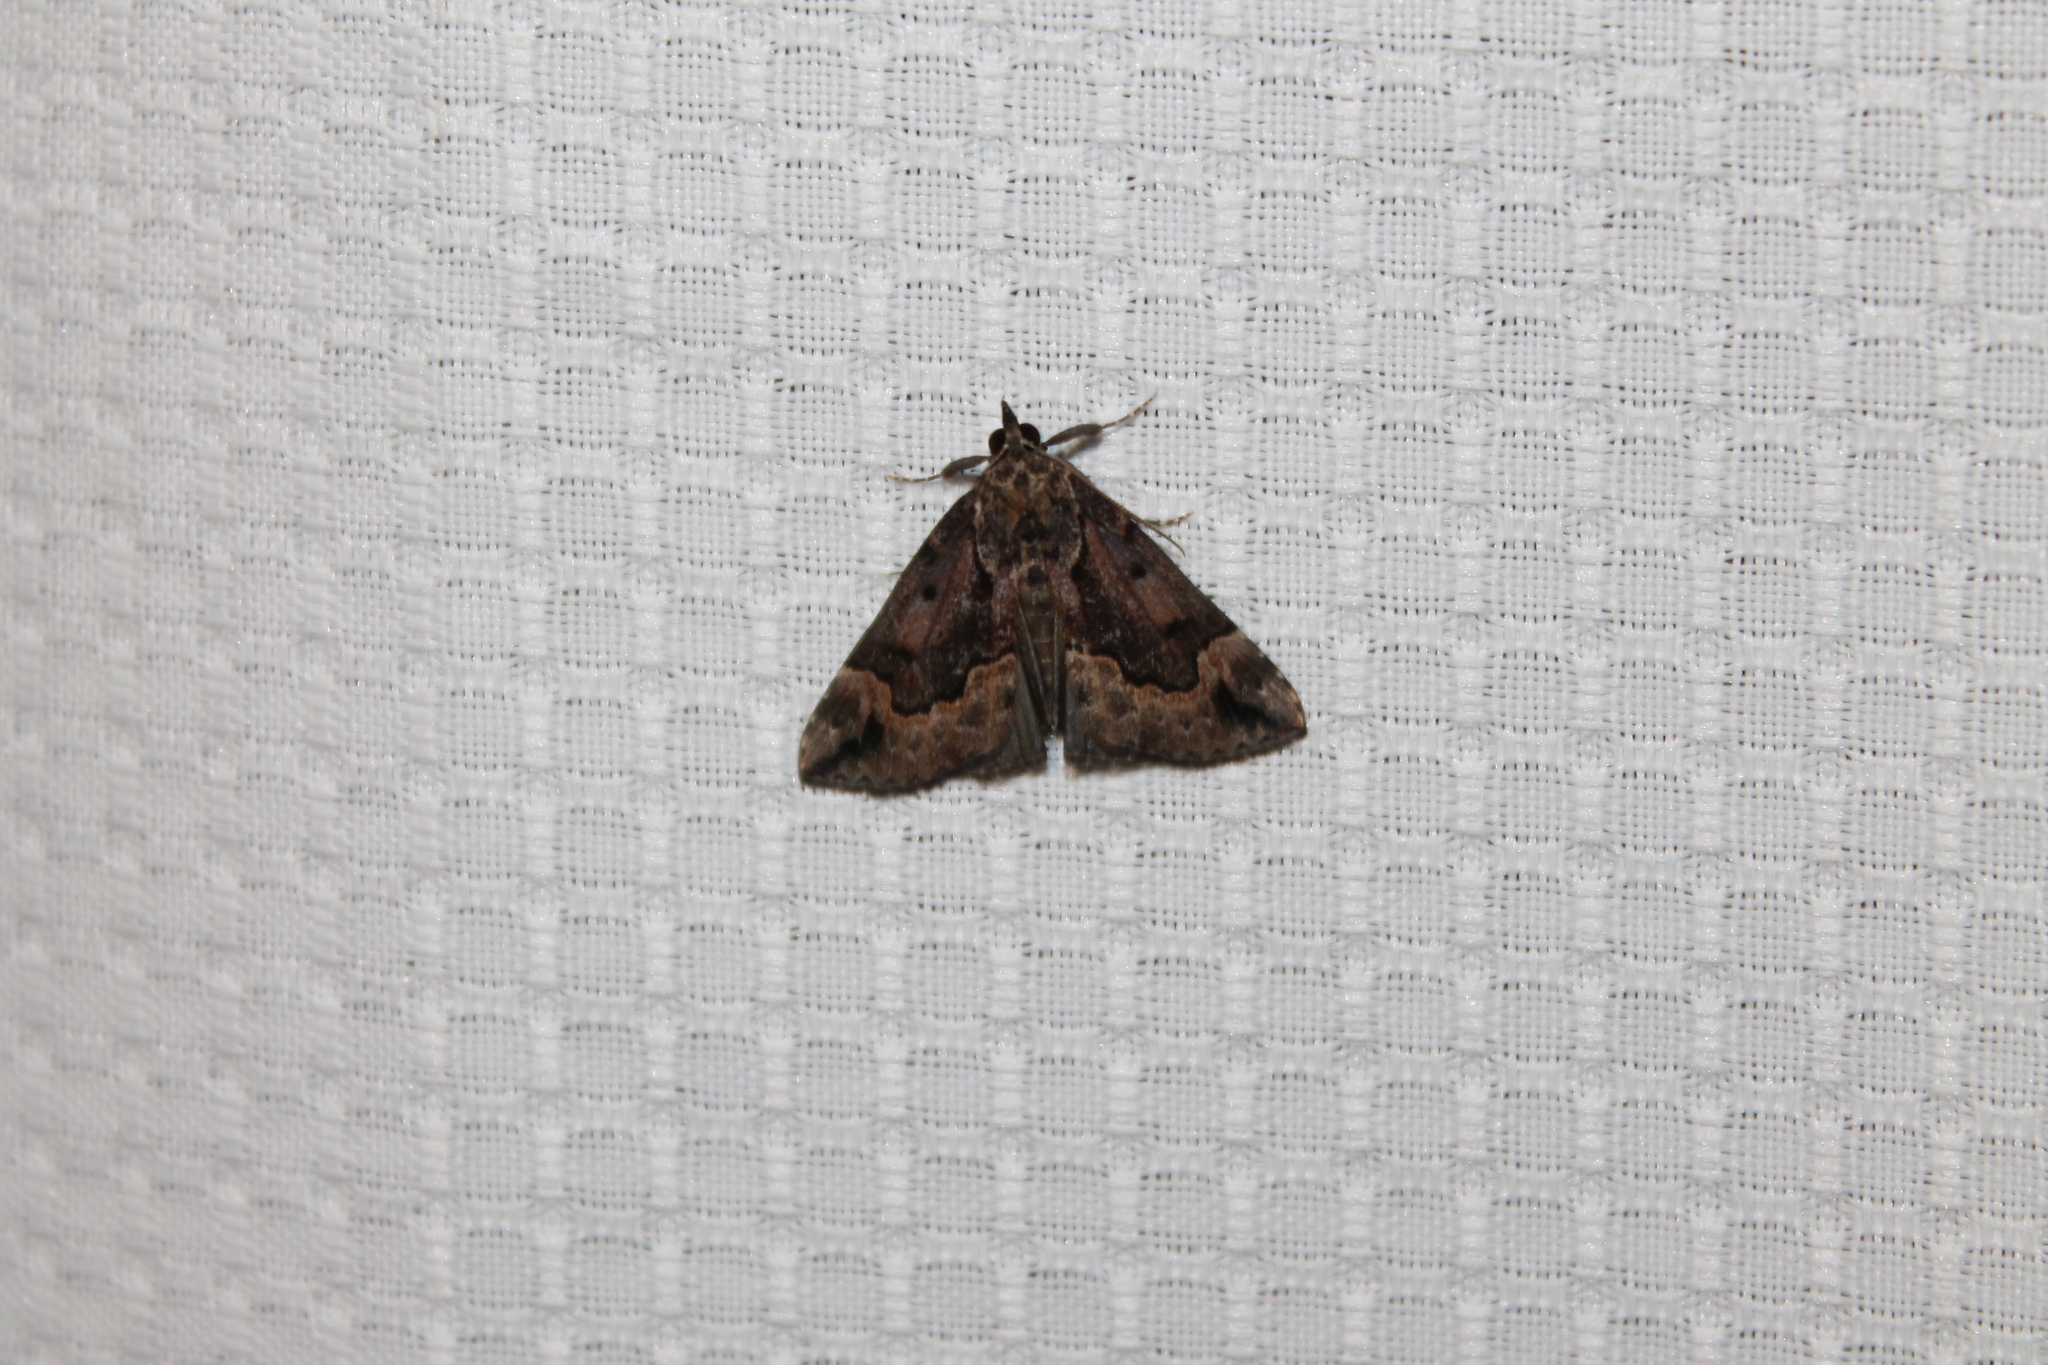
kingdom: Animalia
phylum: Arthropoda
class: Insecta
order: Lepidoptera
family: Erebidae
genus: Hypena
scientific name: Hypena baltimoralis
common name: Baltimore snout
